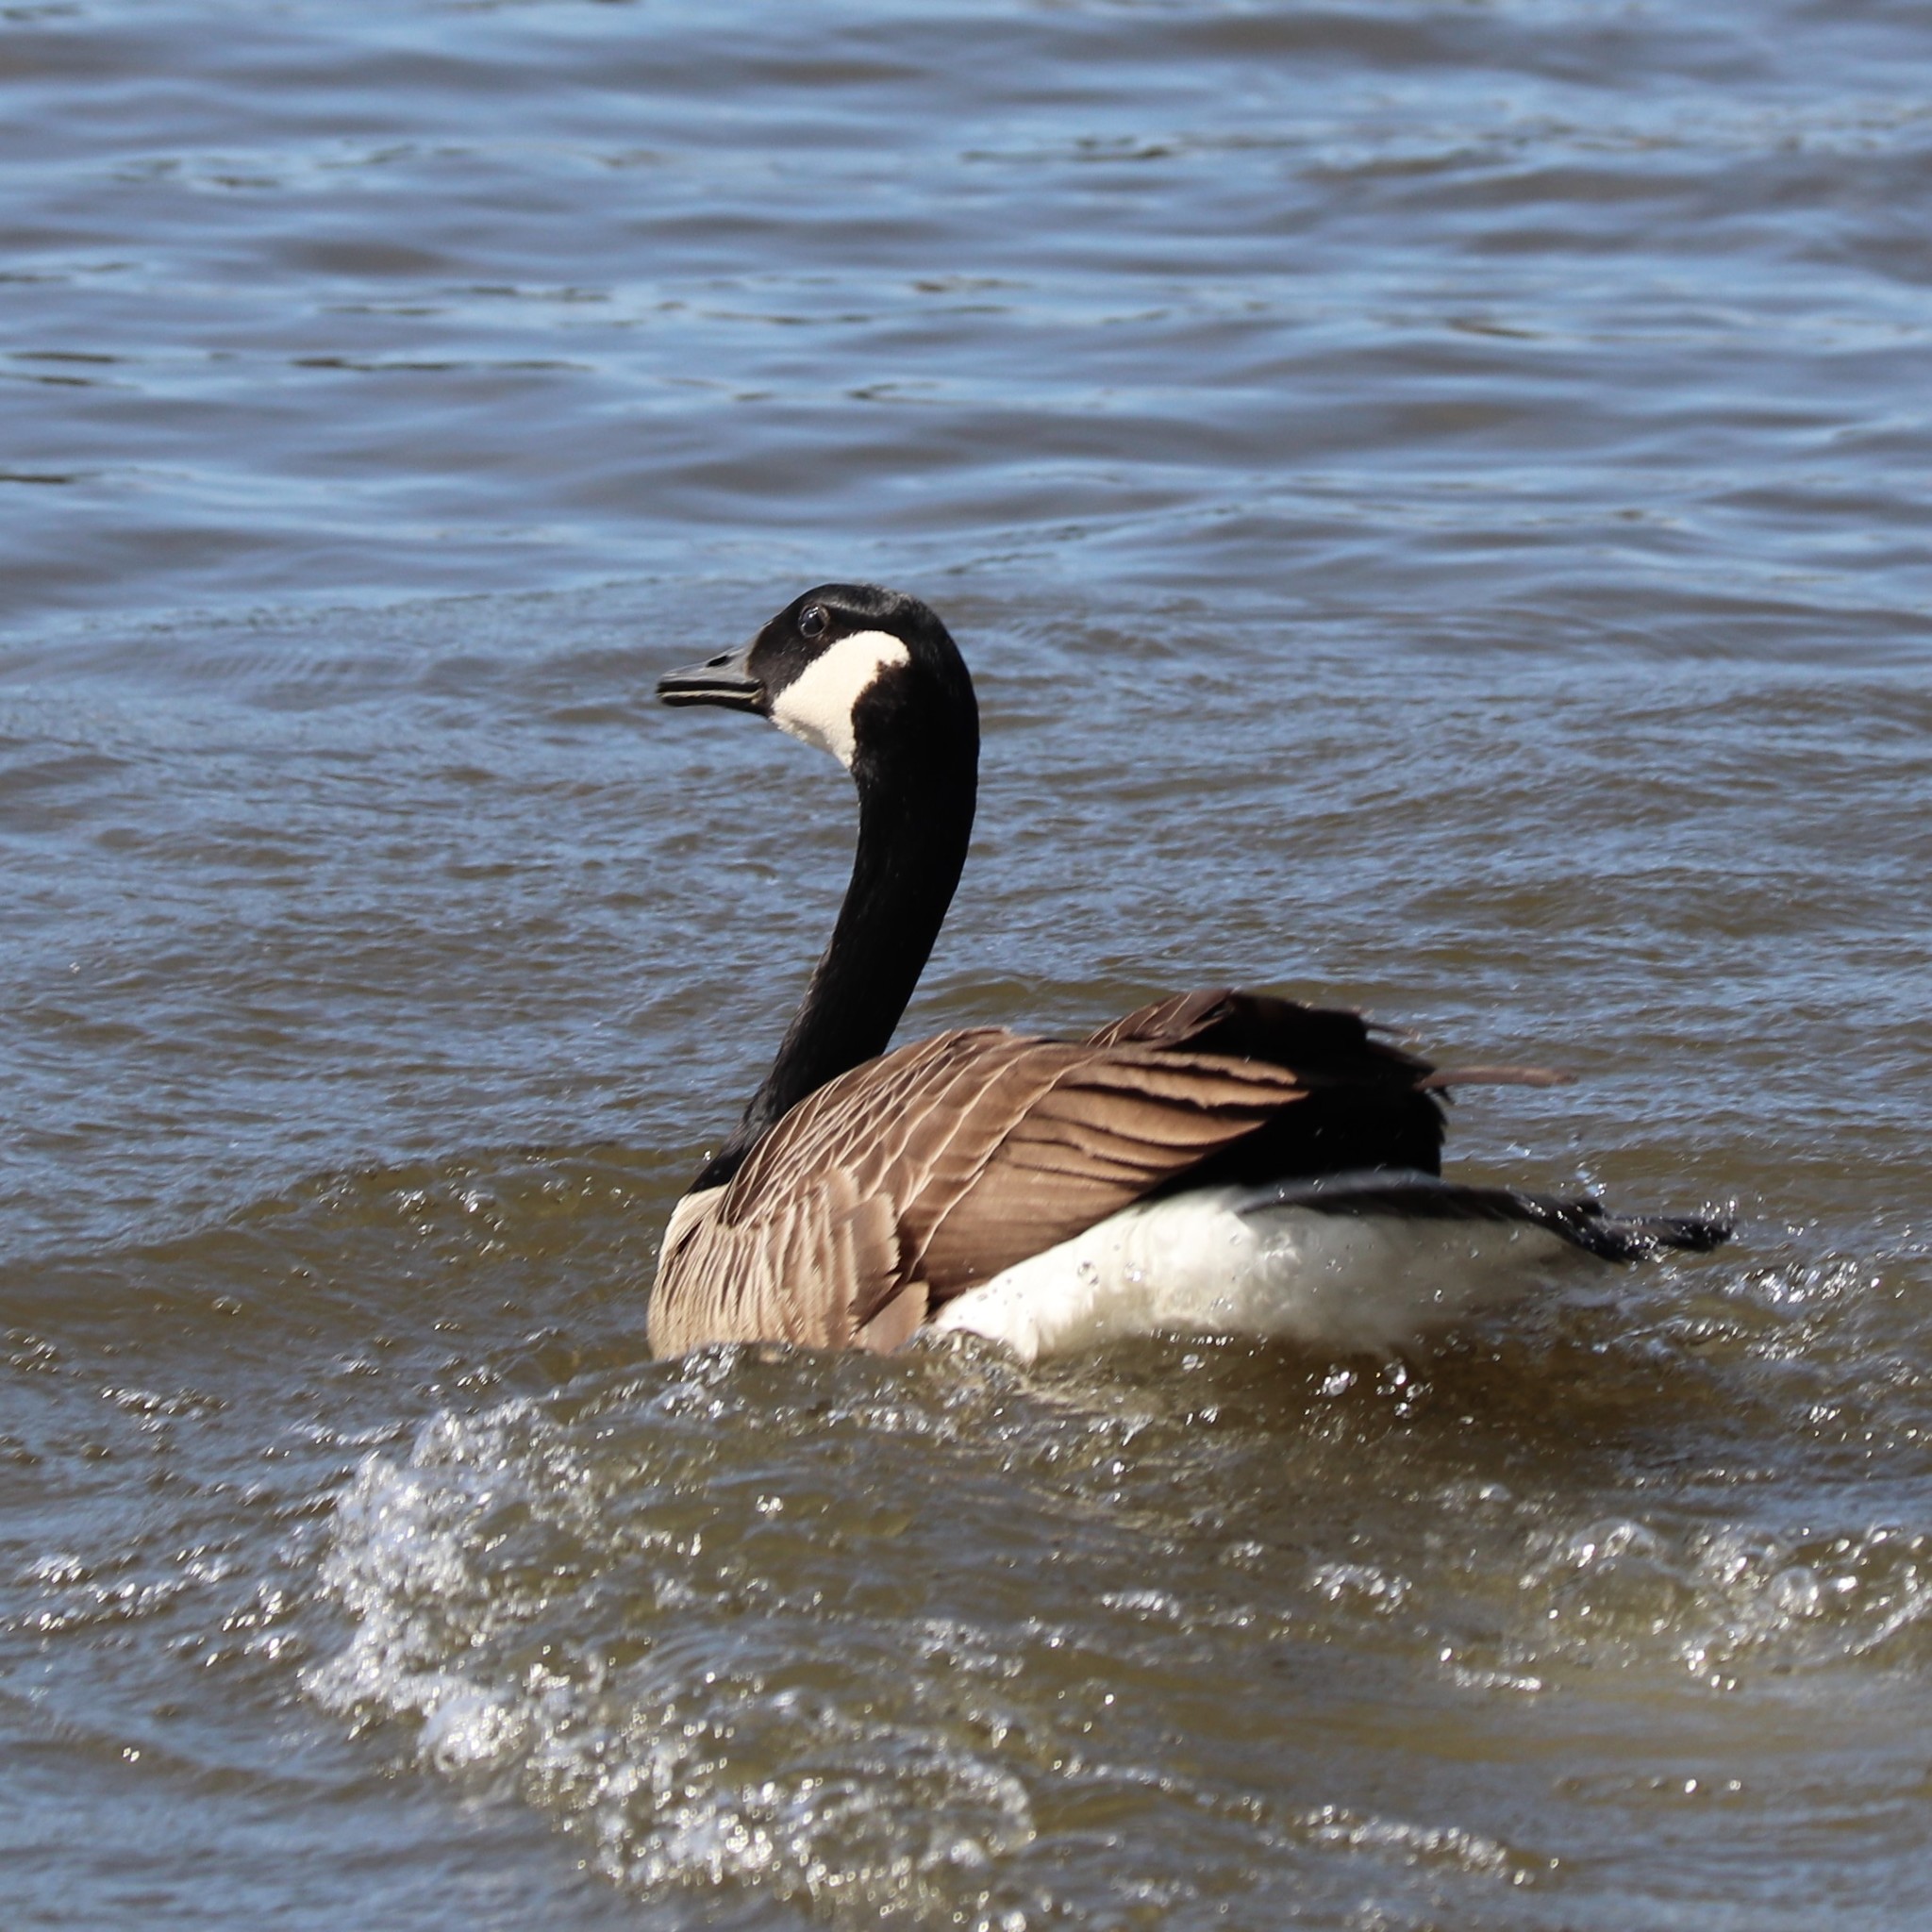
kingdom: Animalia
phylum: Chordata
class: Aves
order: Anseriformes
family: Anatidae
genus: Branta
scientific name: Branta canadensis
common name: Canada goose
